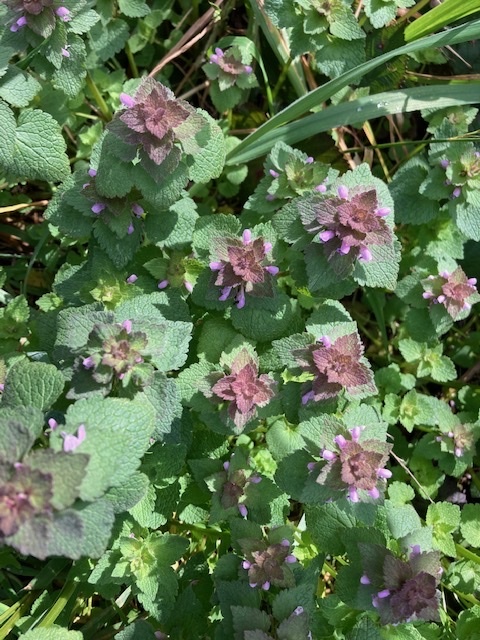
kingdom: Plantae
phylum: Tracheophyta
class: Magnoliopsida
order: Lamiales
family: Lamiaceae
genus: Lamium
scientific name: Lamium purpureum
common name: Red dead-nettle
